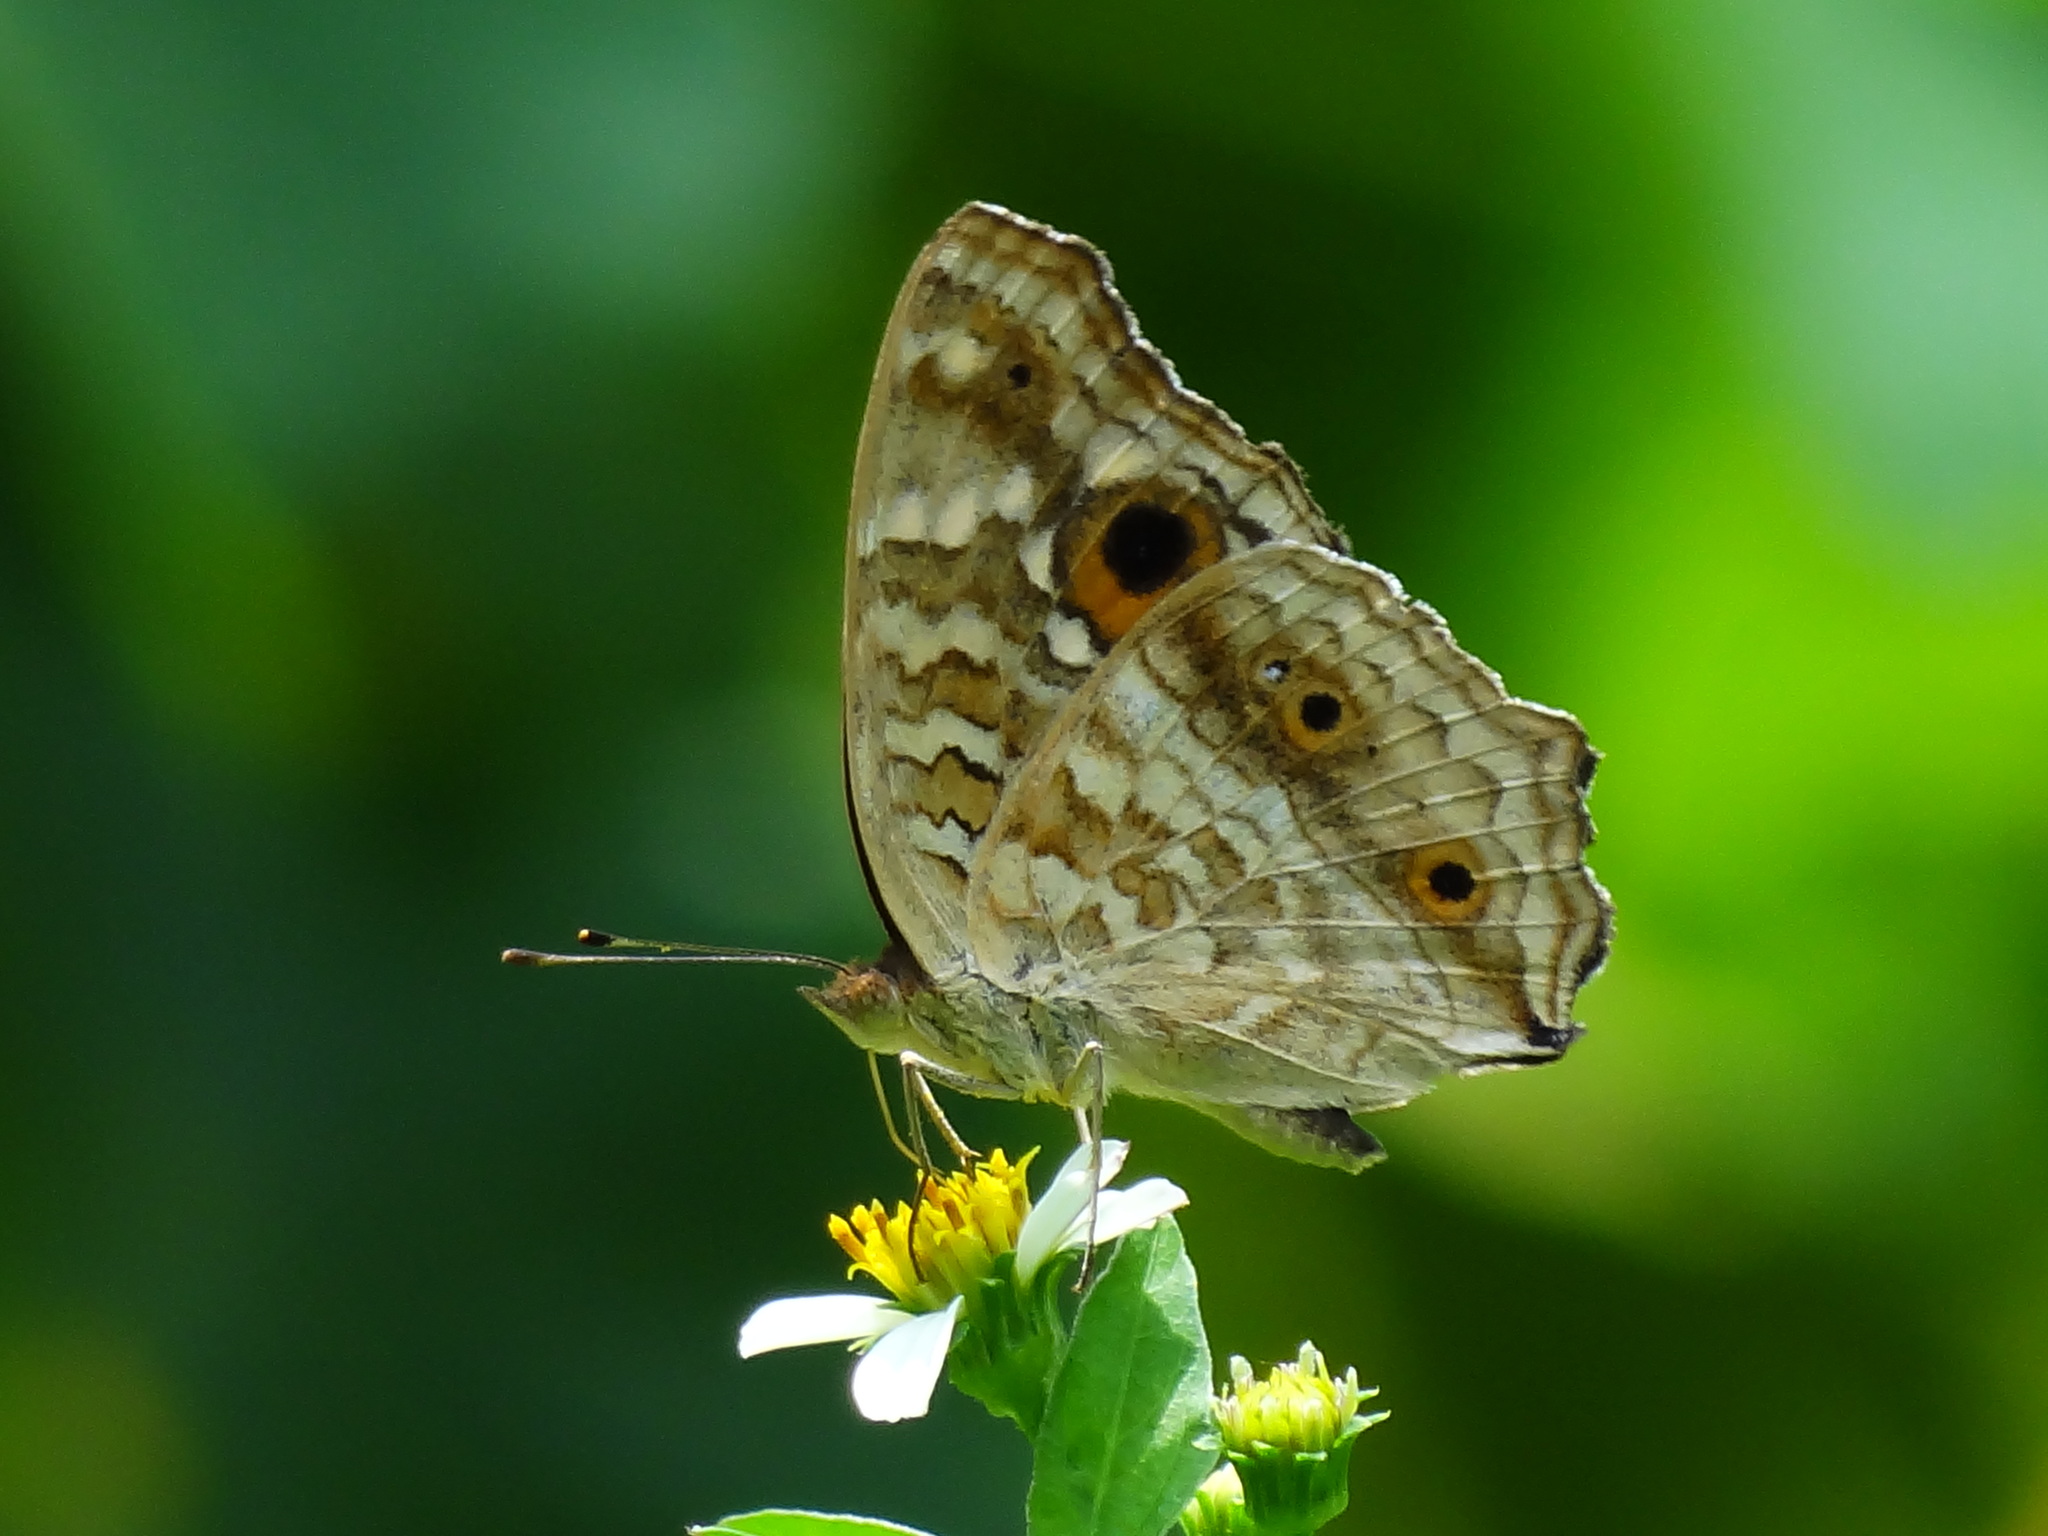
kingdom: Animalia
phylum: Arthropoda
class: Insecta
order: Lepidoptera
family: Nymphalidae
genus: Junonia
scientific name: Junonia lemonias
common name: Lemon pansy
